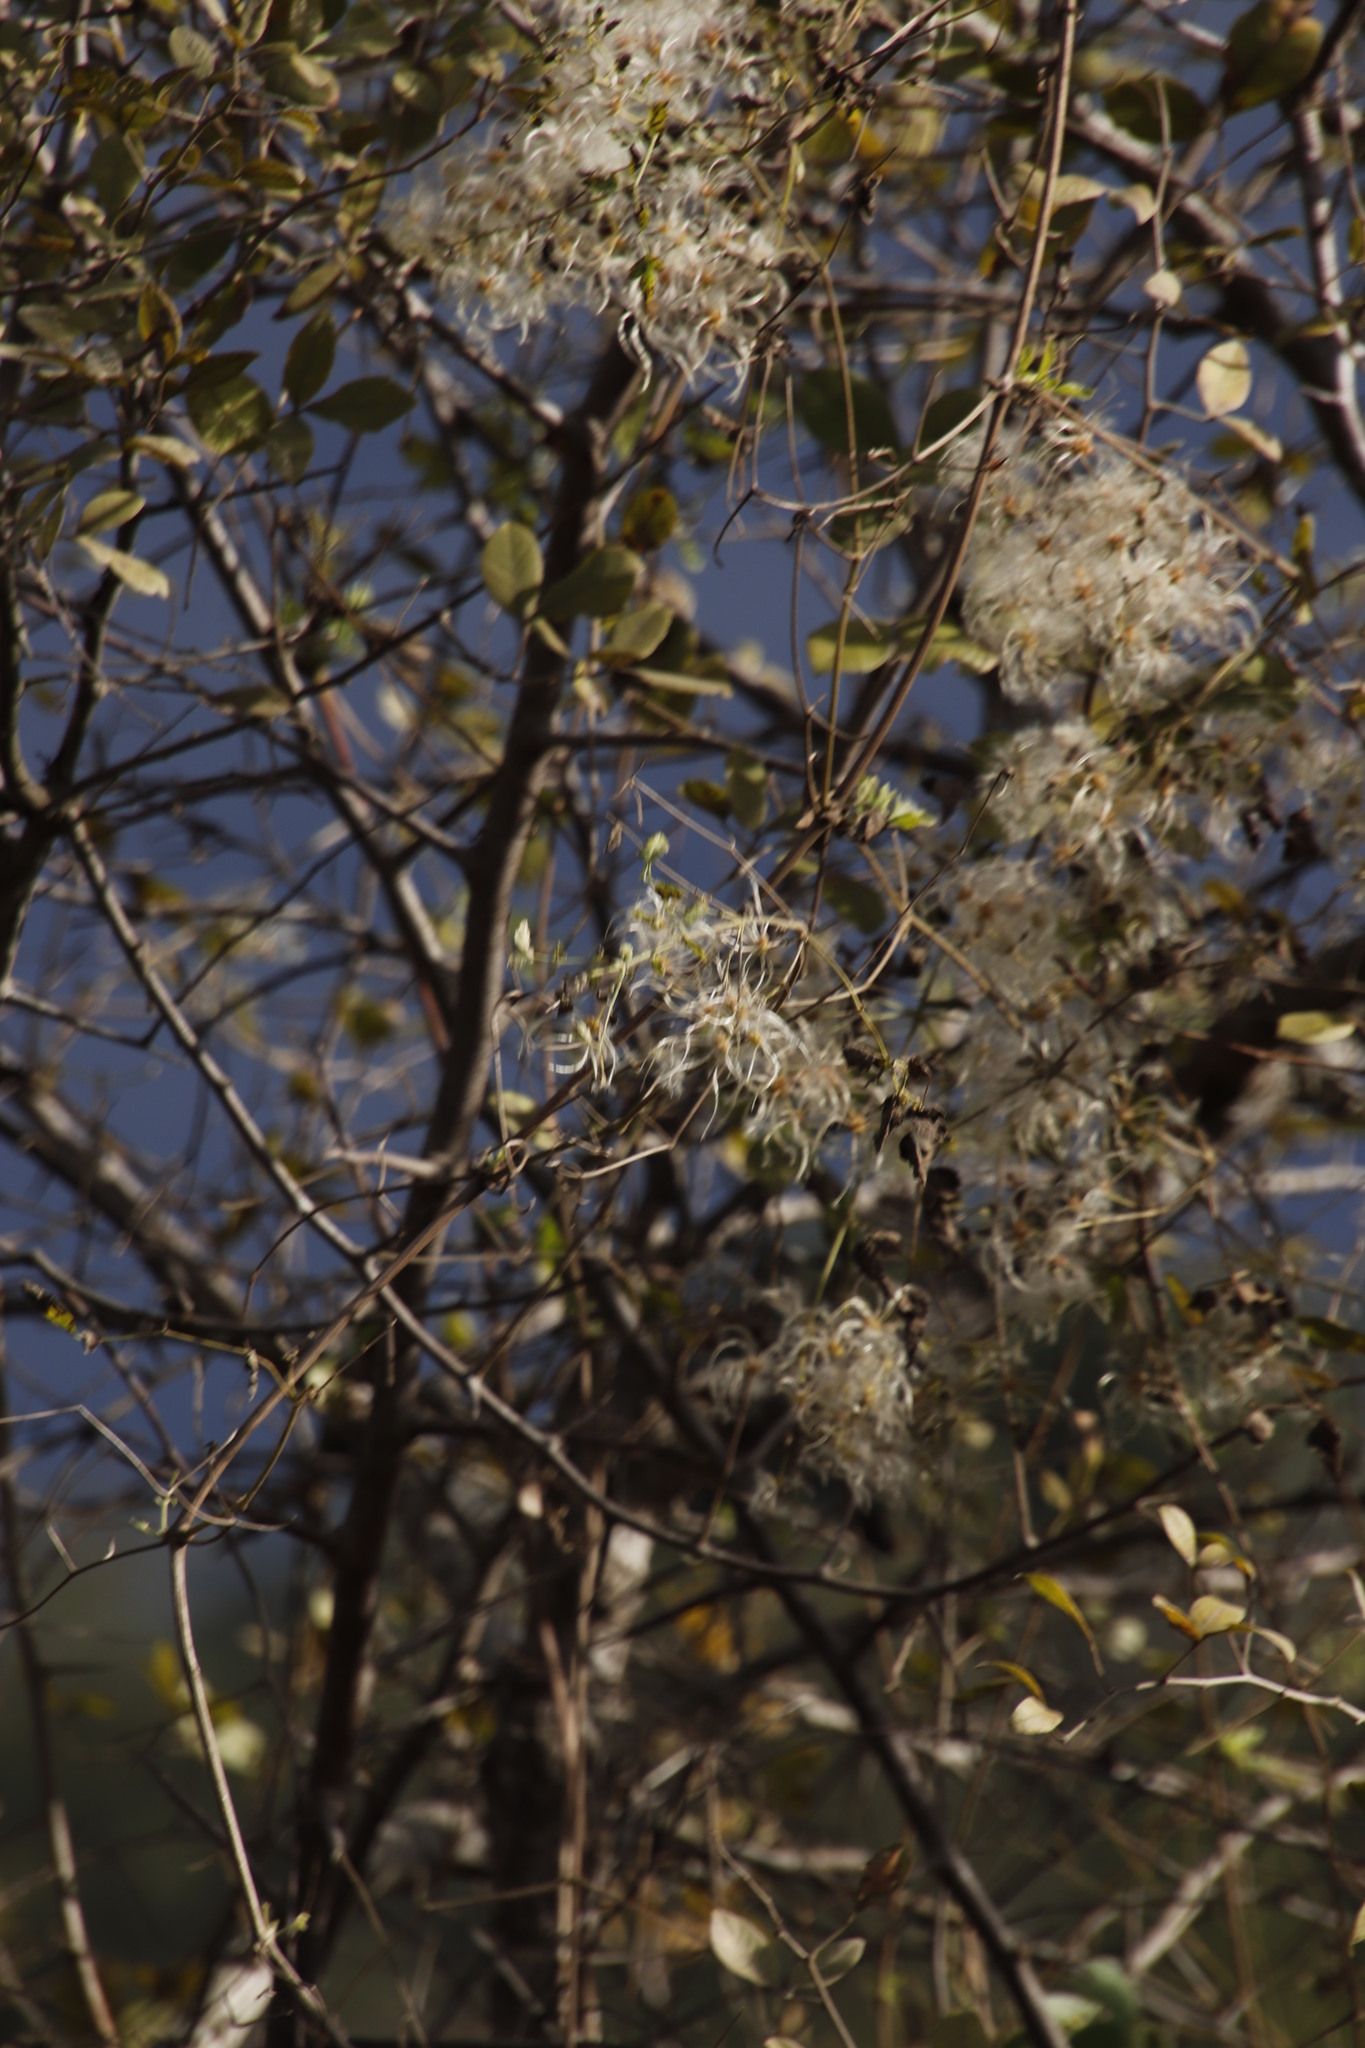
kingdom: Plantae
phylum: Tracheophyta
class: Magnoliopsida
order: Ranunculales
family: Ranunculaceae
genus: Clematis
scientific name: Clematis brachiata
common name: Traveler's-joy
